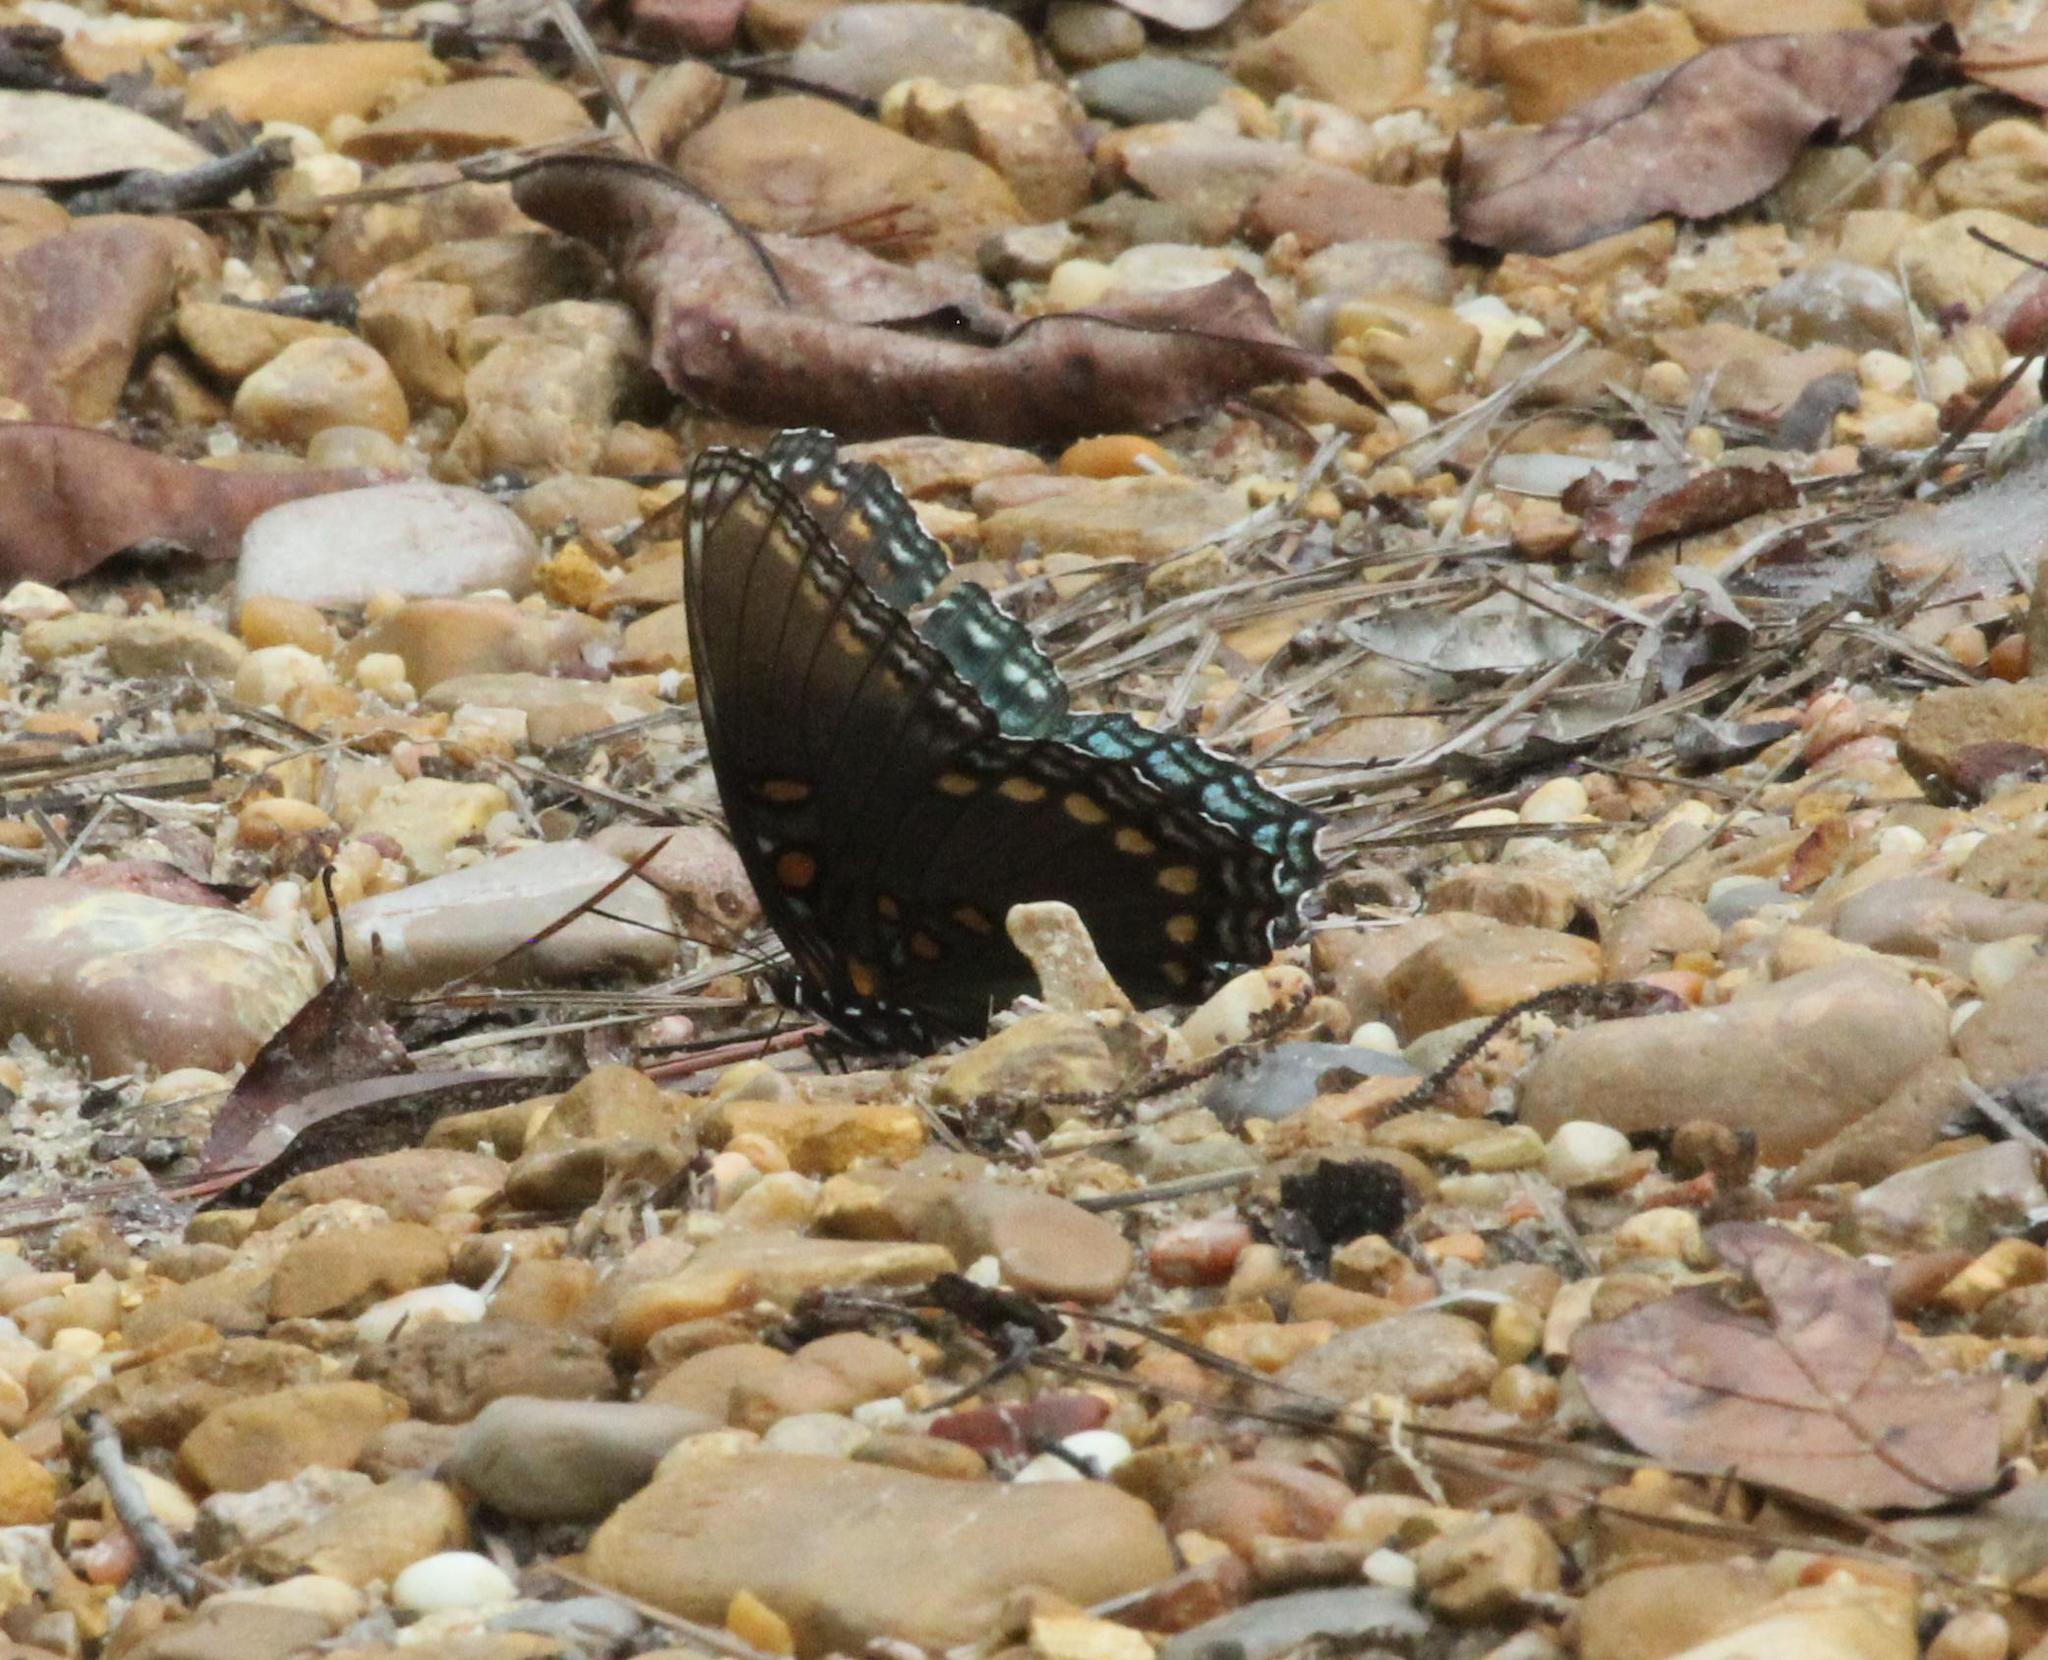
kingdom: Animalia
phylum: Arthropoda
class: Insecta
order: Lepidoptera
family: Nymphalidae
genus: Limenitis
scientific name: Limenitis astyanax
